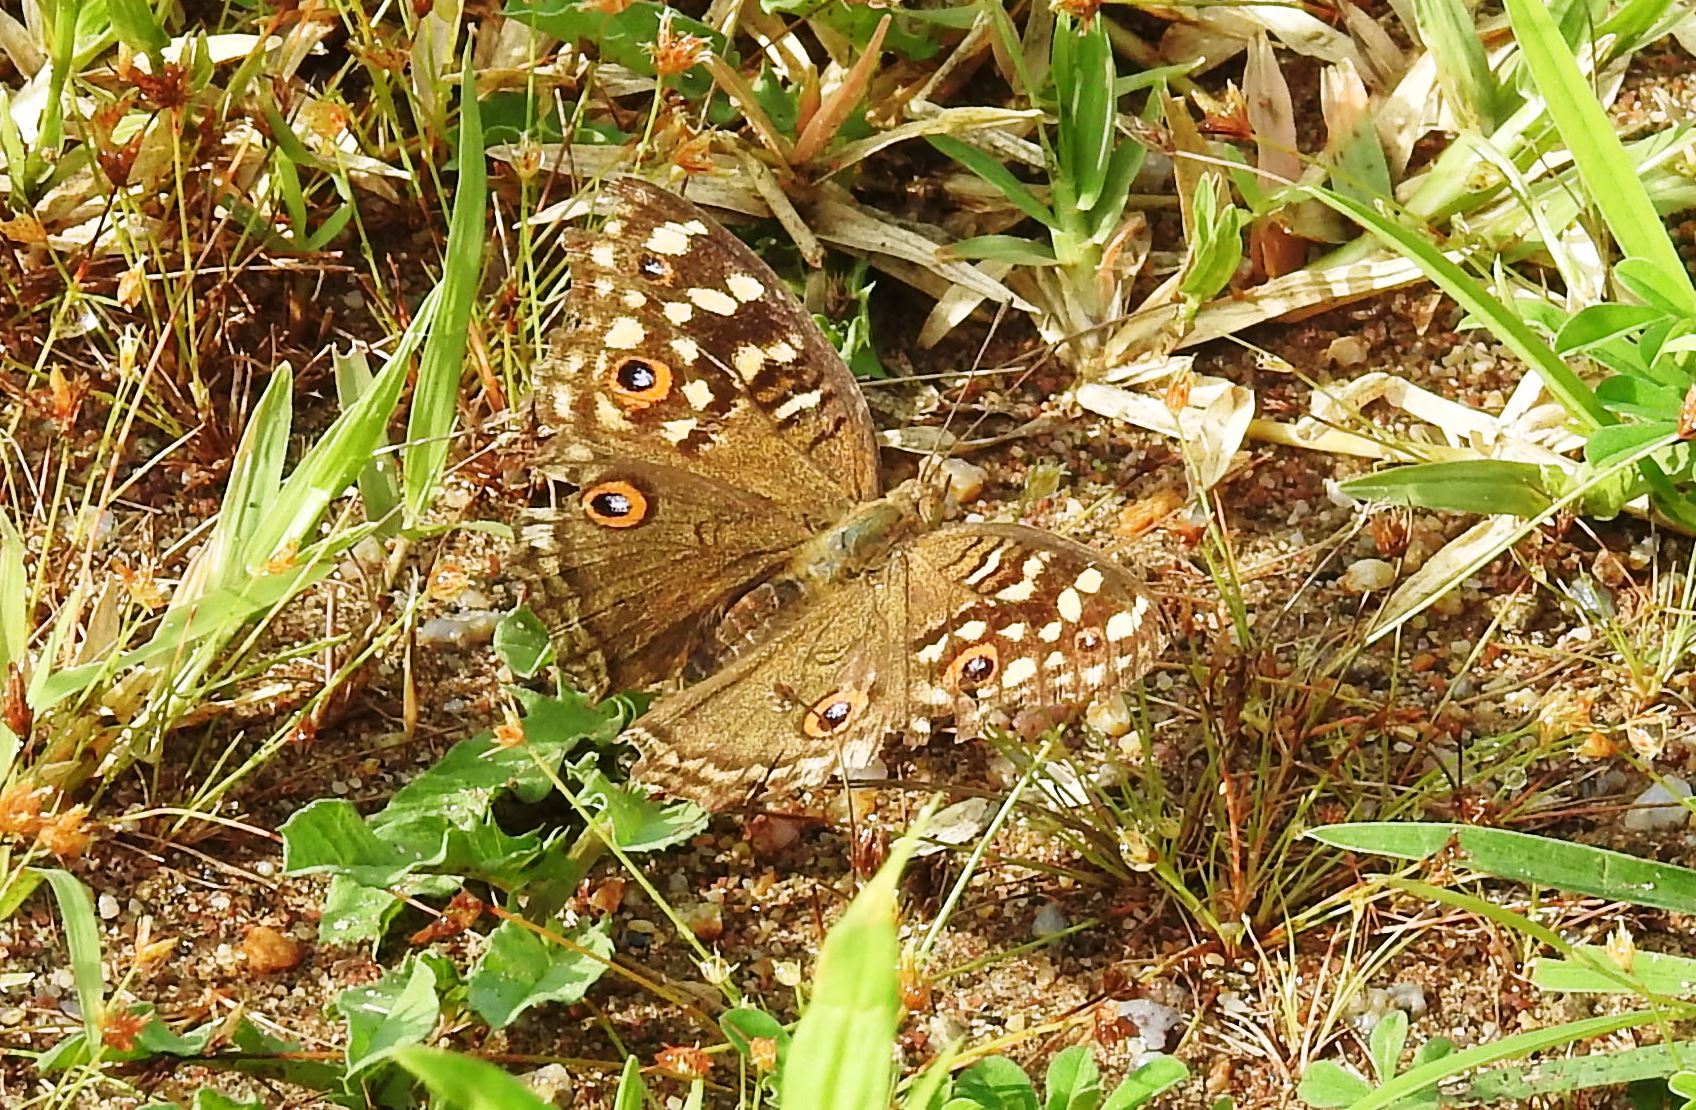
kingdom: Animalia
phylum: Arthropoda
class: Insecta
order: Lepidoptera
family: Nymphalidae
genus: Junonia
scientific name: Junonia lemonias
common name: Lemon pansy
